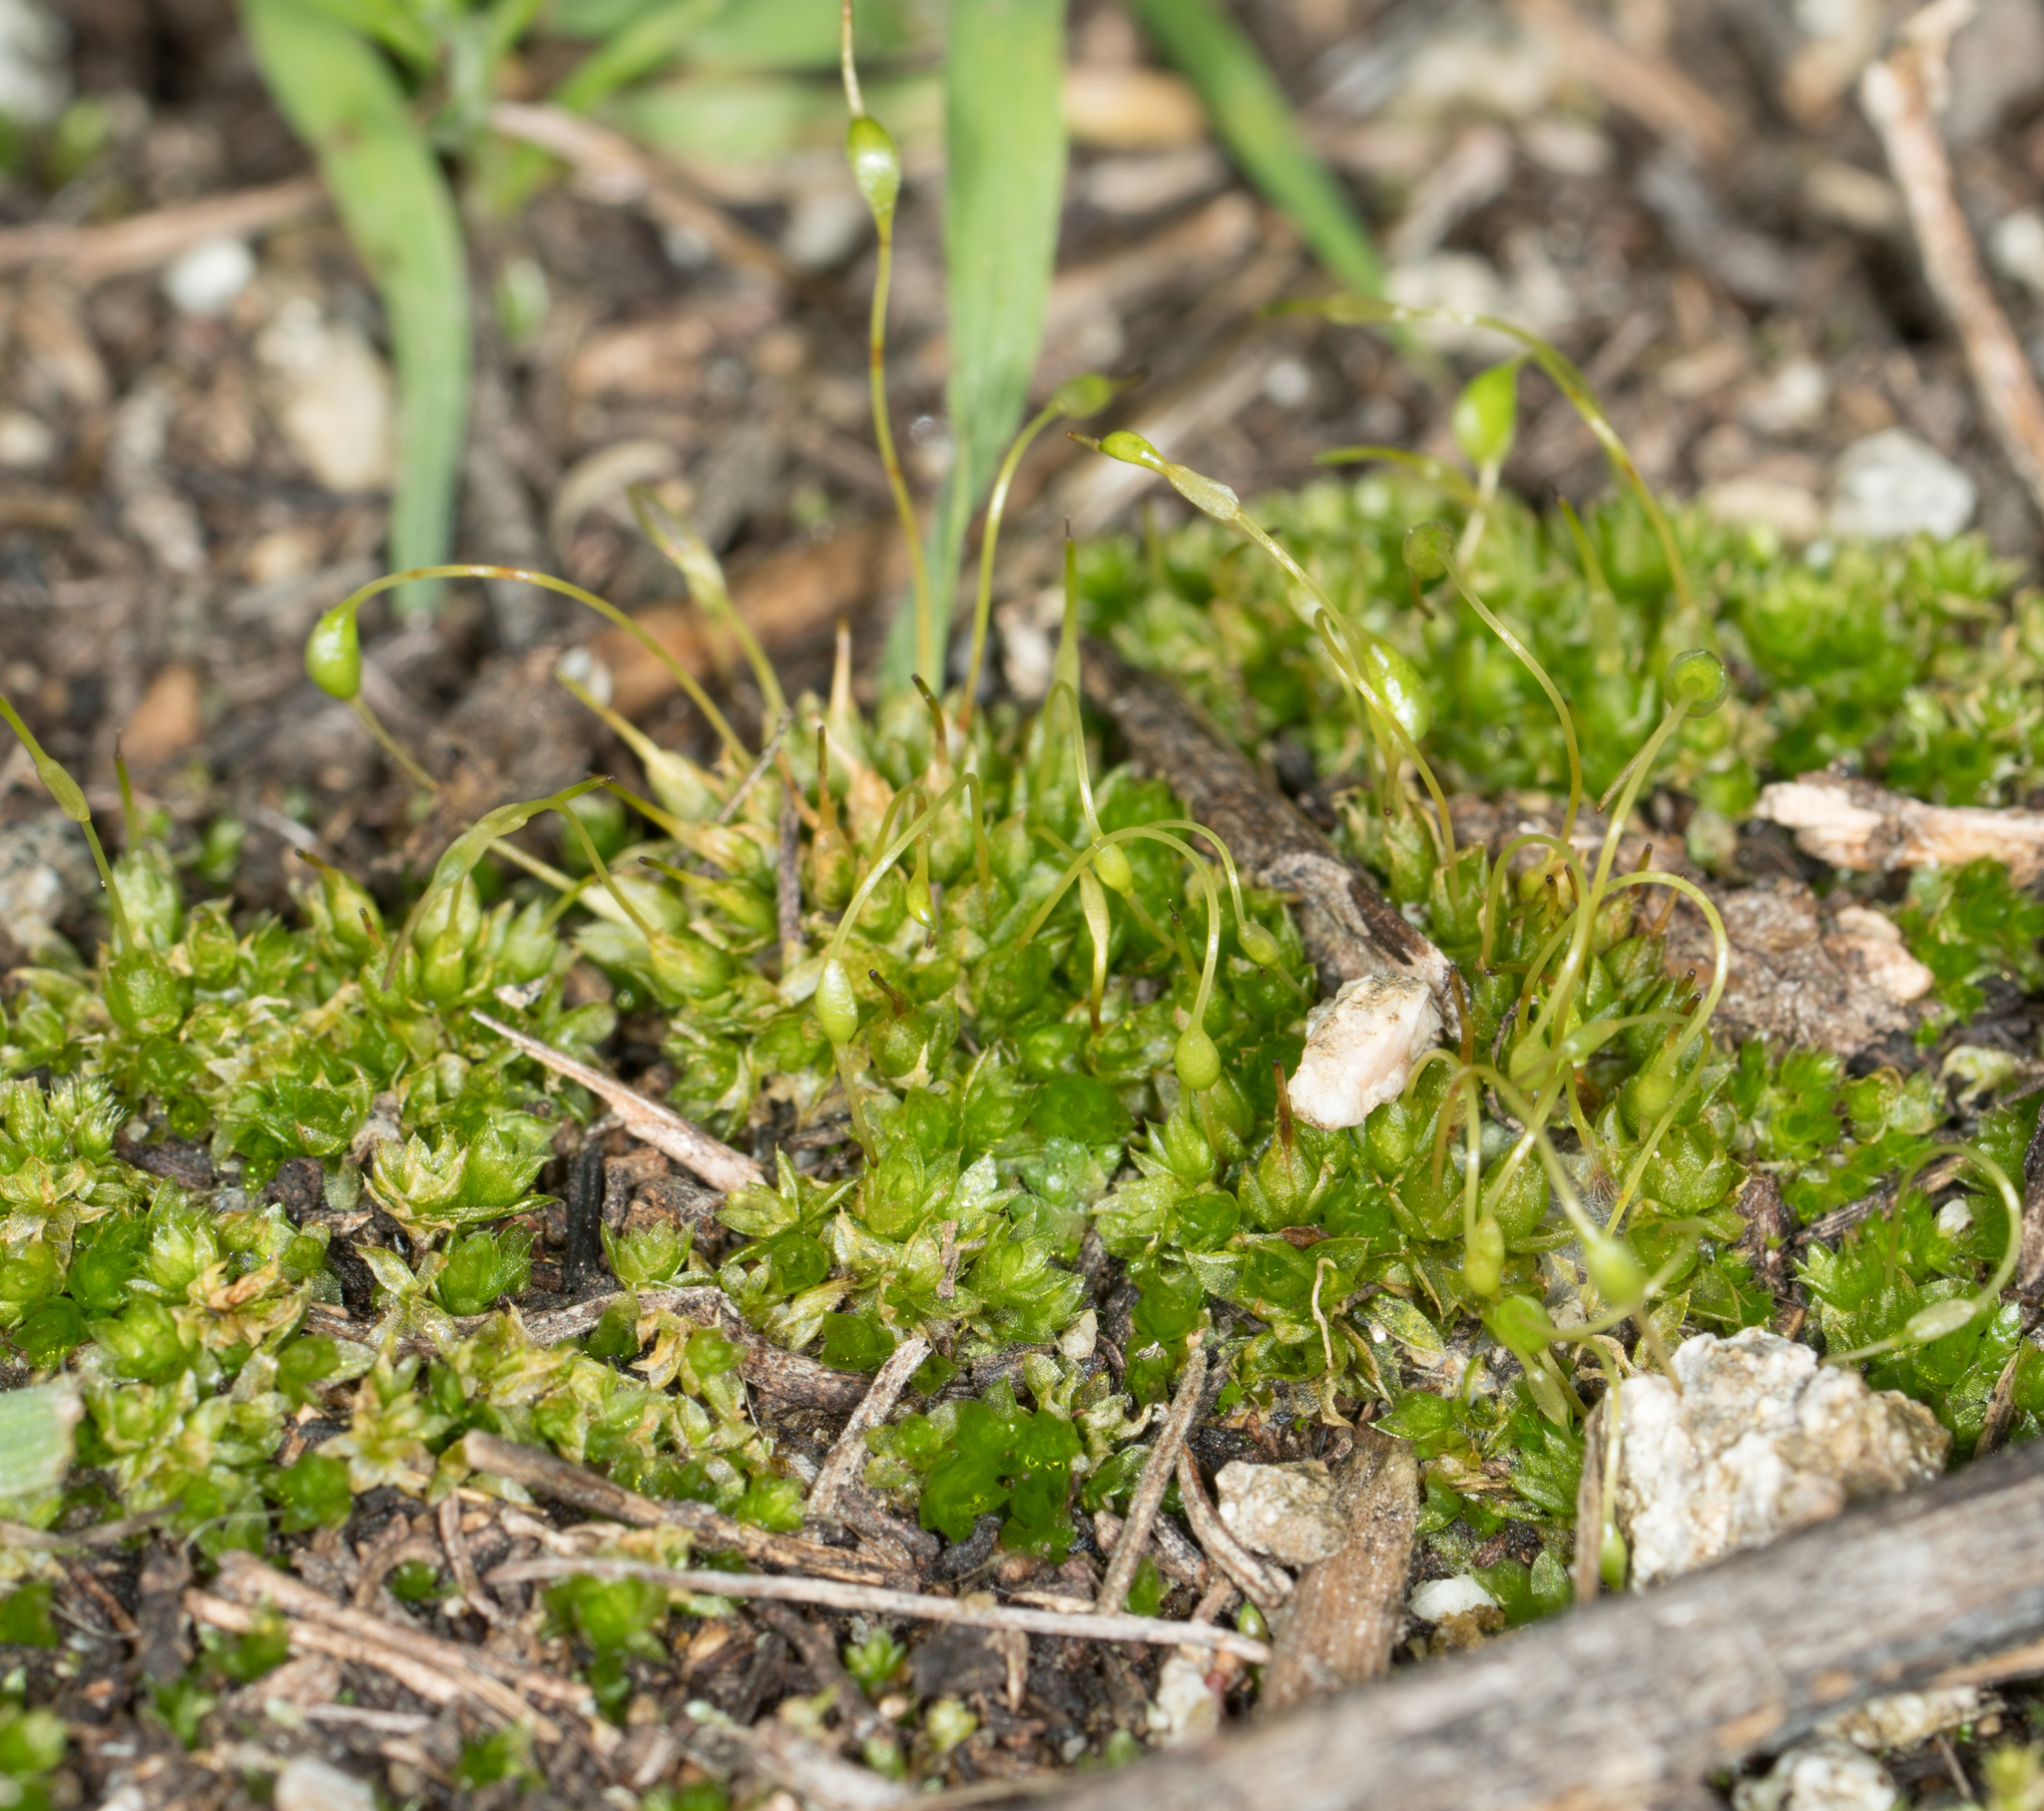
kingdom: Plantae
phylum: Bryophyta
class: Bryopsida
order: Funariales
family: Funariaceae
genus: Funaria
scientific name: Funaria hygrometrica
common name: Common cord moss
